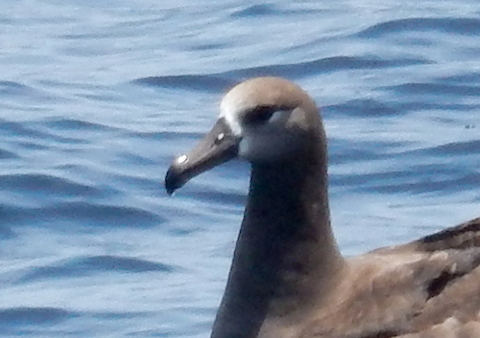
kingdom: Animalia
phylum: Chordata
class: Aves
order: Procellariiformes
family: Diomedeidae
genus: Phoebastria
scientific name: Phoebastria nigripes
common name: Black-footed albatross
